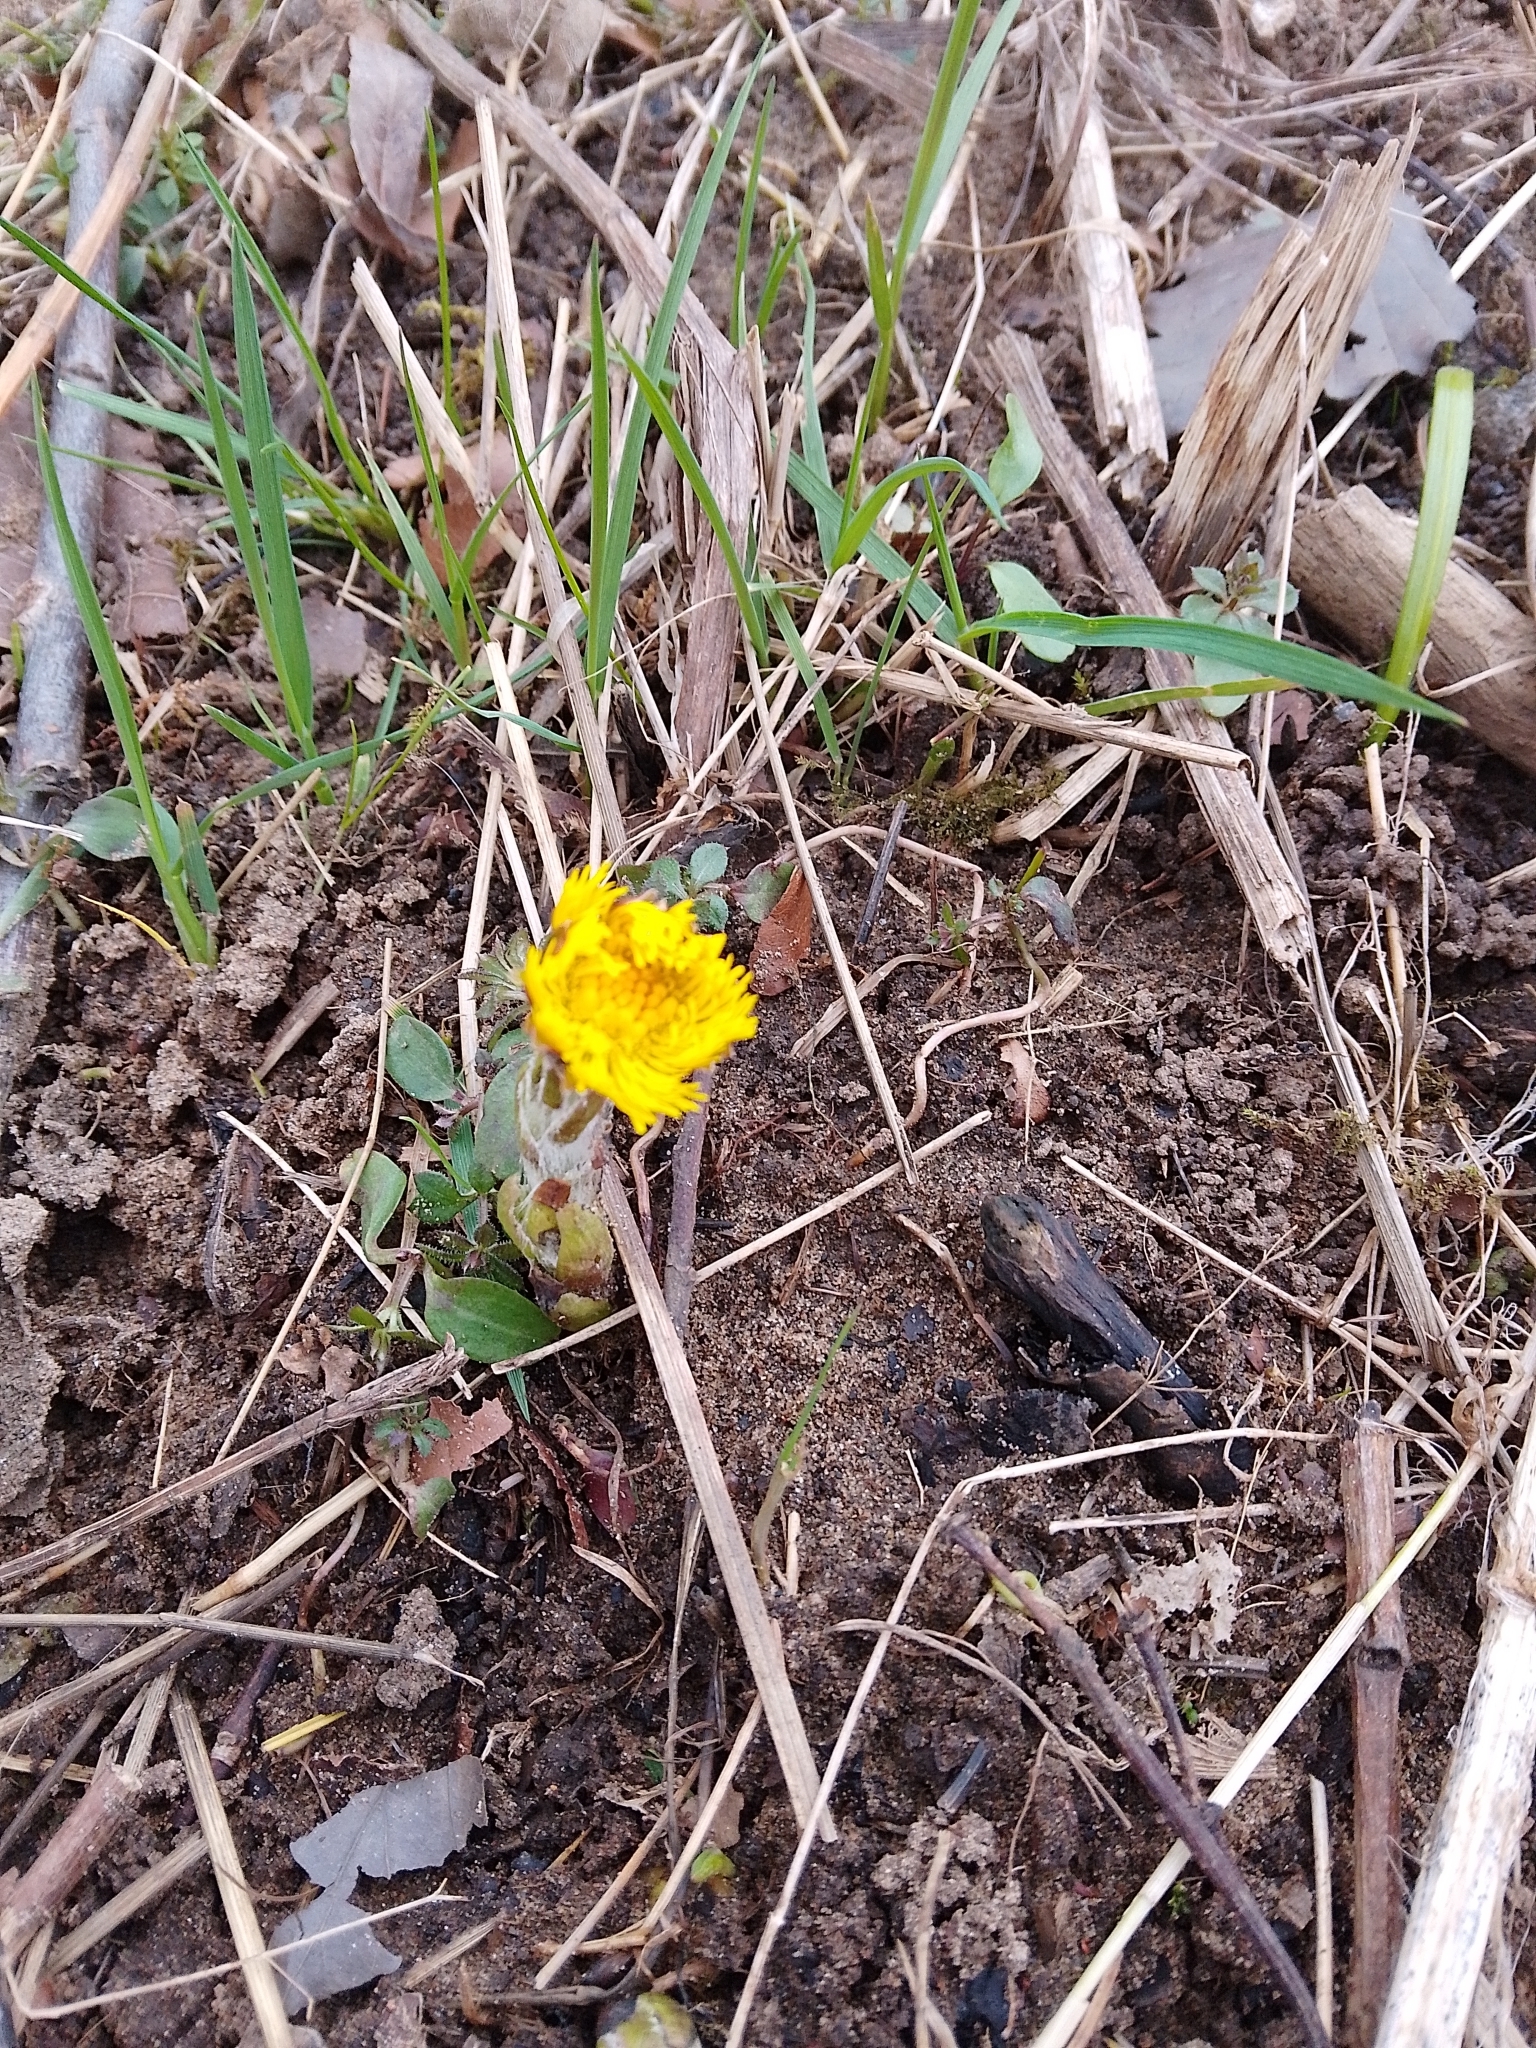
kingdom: Plantae
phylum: Tracheophyta
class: Magnoliopsida
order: Asterales
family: Asteraceae
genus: Tussilago
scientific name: Tussilago farfara
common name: Coltsfoot
